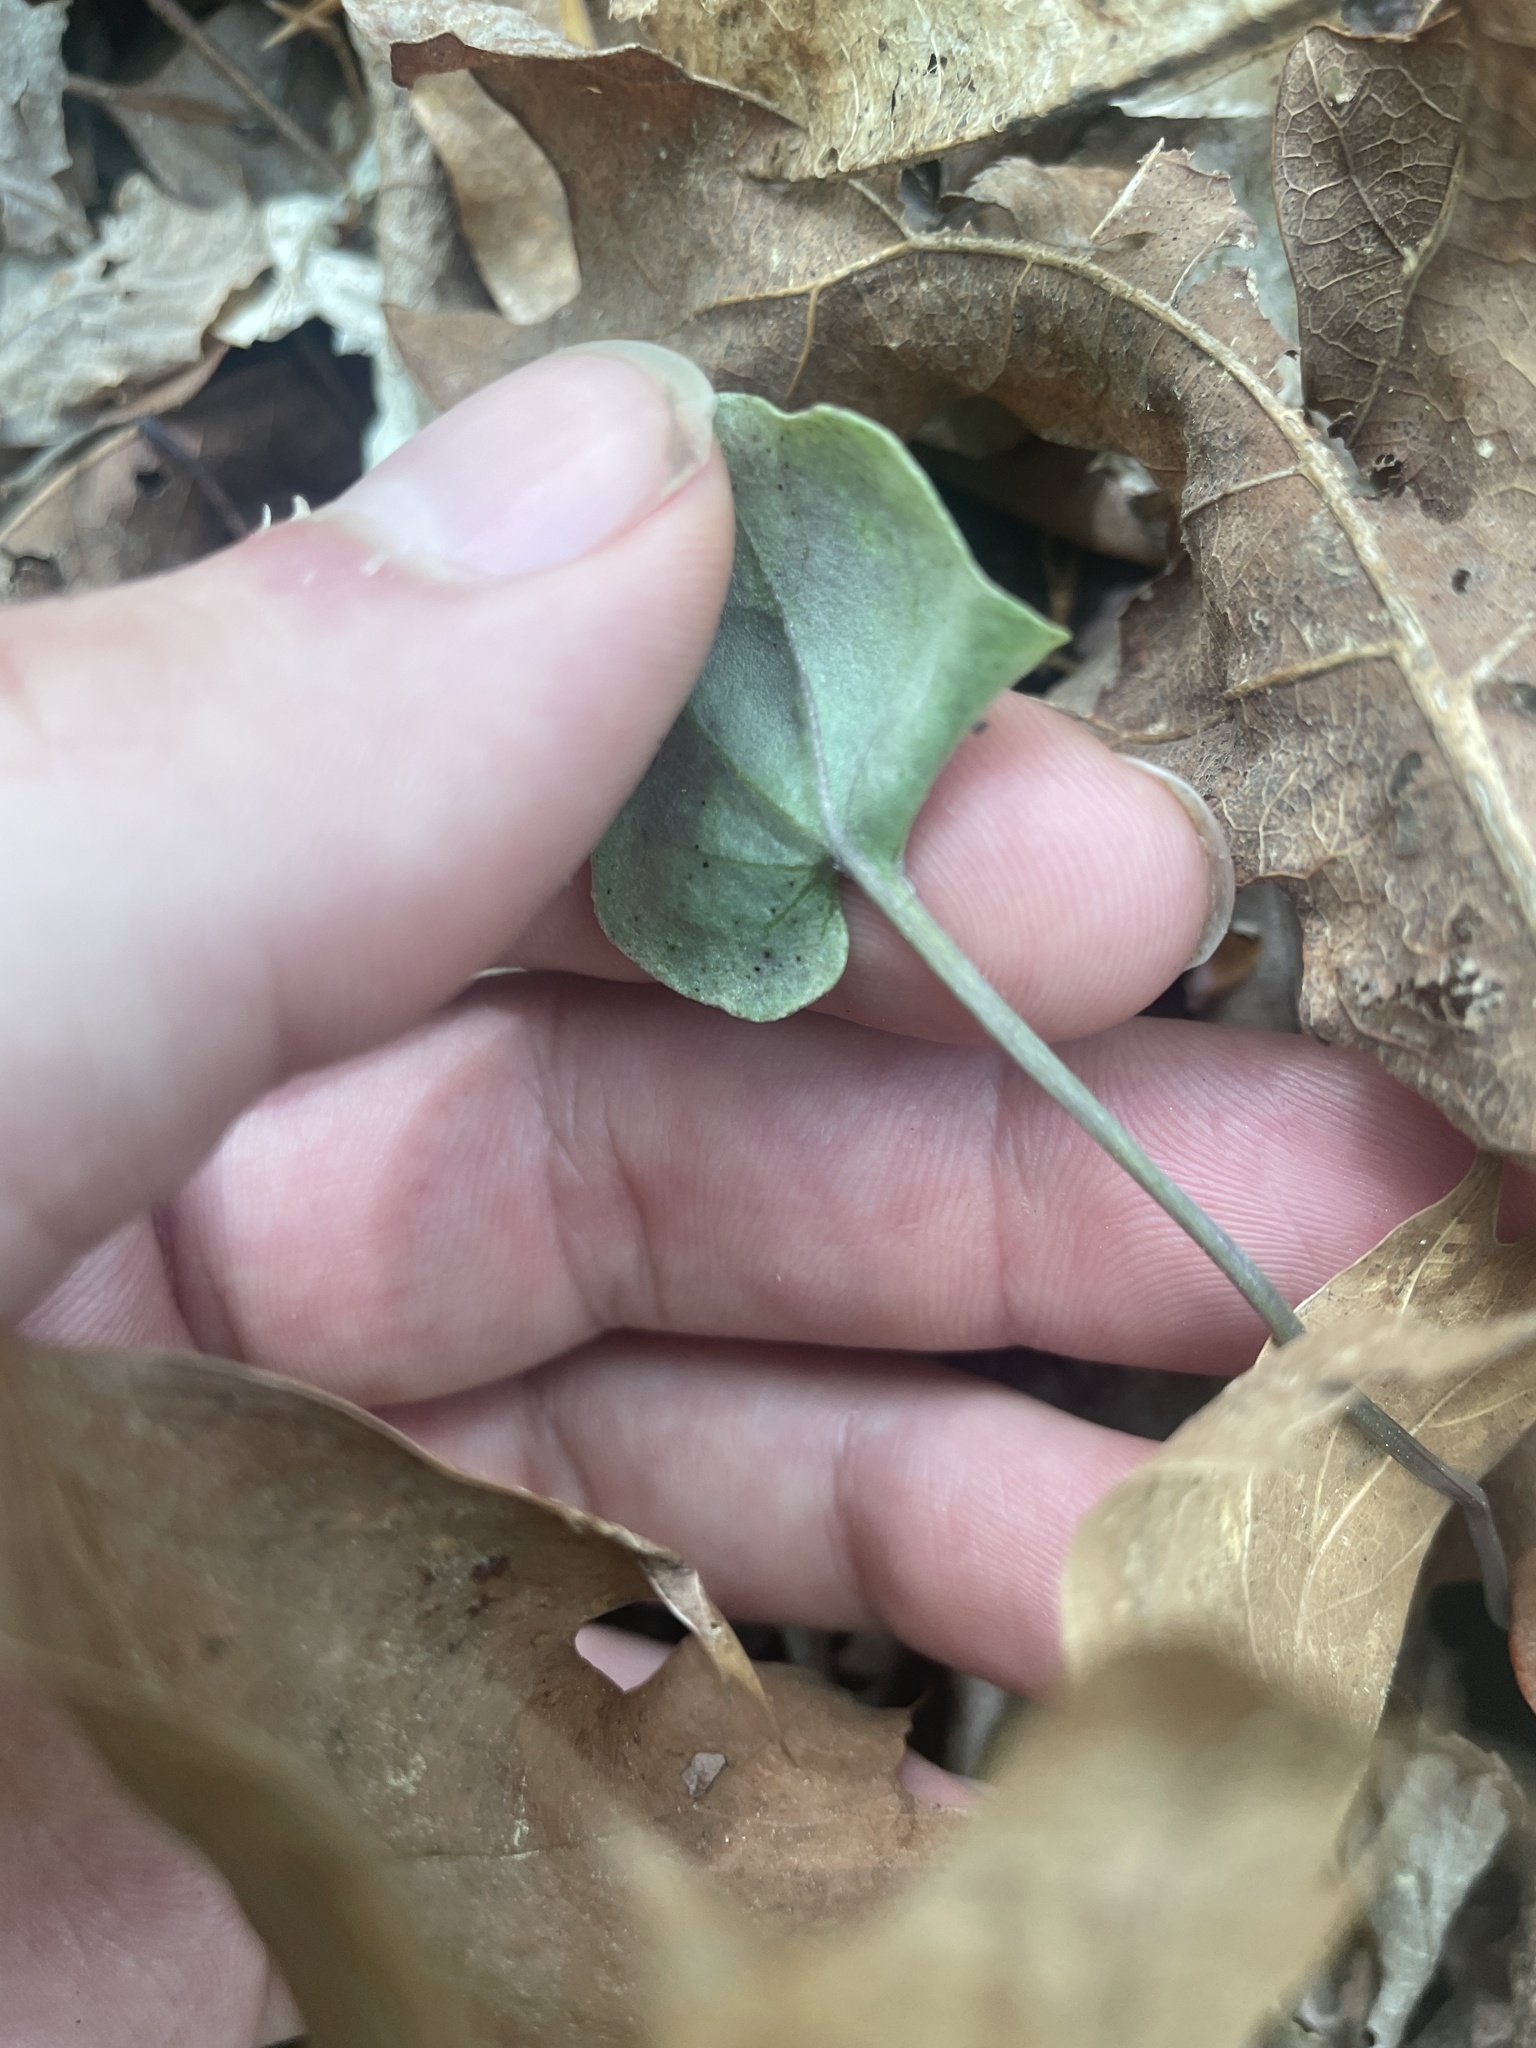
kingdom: Plantae
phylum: Tracheophyta
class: Magnoliopsida
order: Brassicales
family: Brassicaceae
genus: Cardamine
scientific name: Cardamine douglassii
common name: Purple cress
